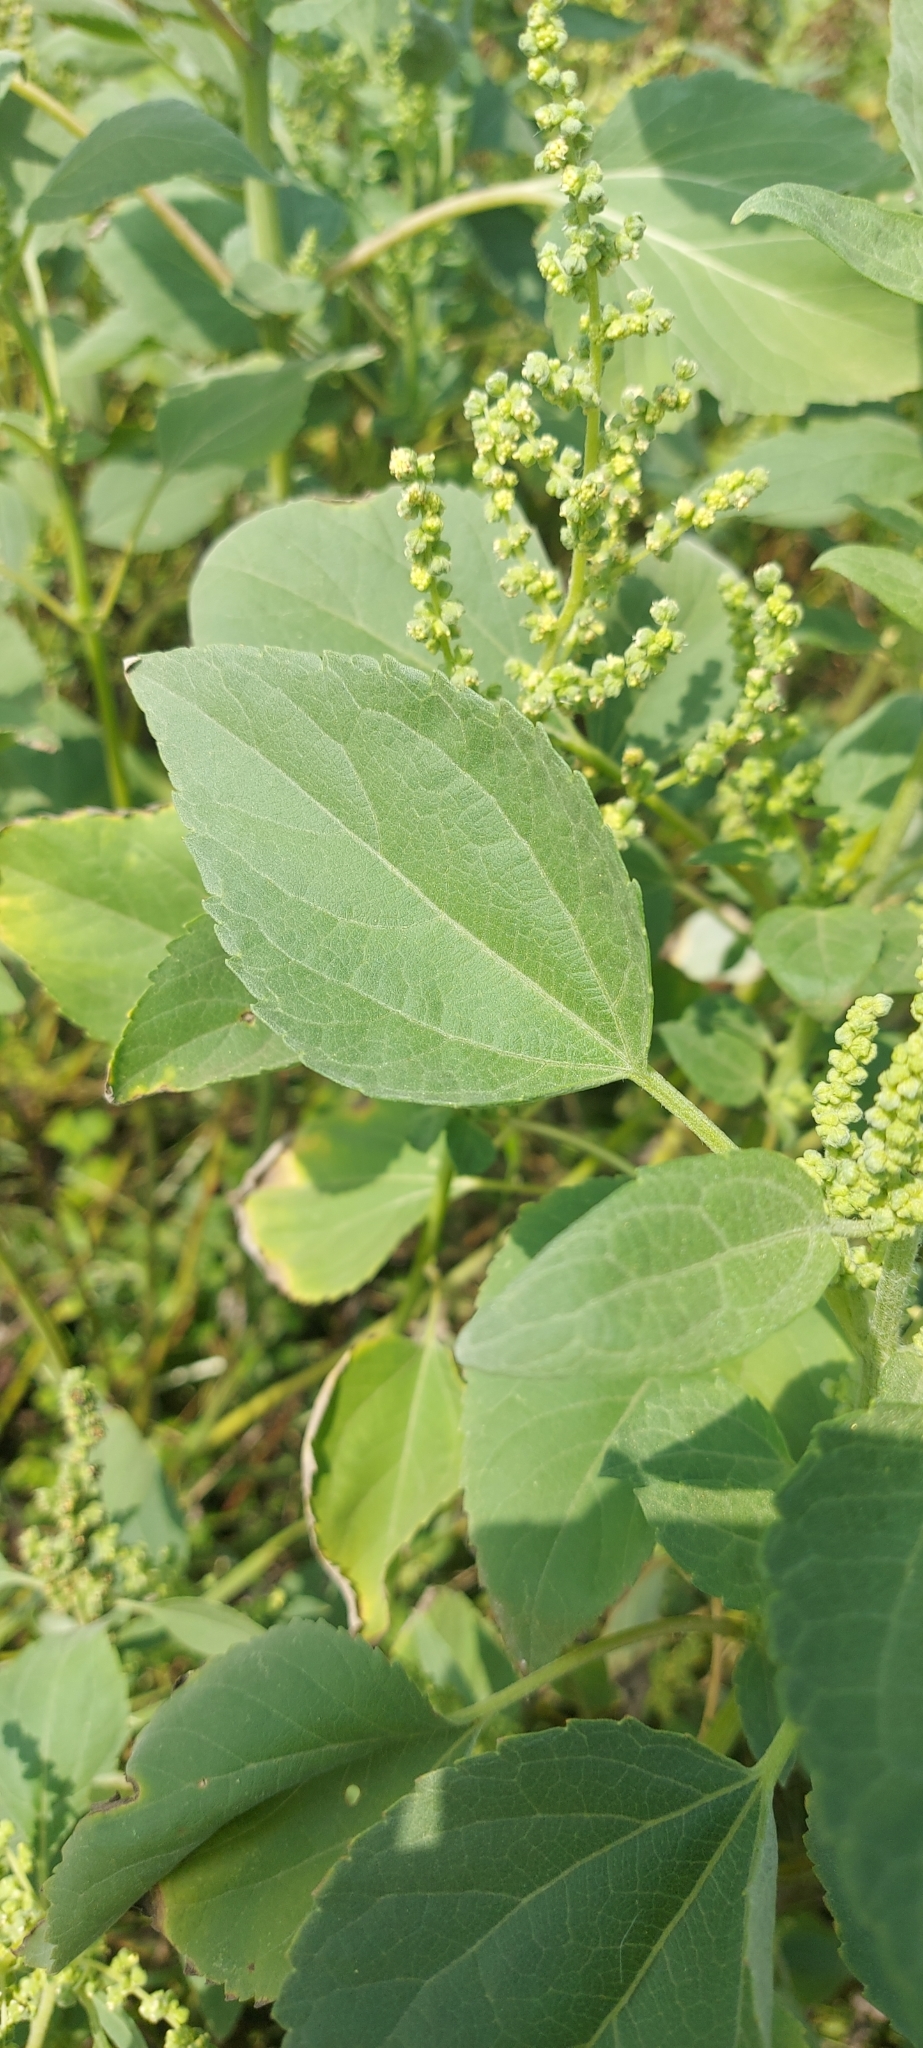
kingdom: Plantae
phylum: Tracheophyta
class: Magnoliopsida
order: Asterales
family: Asteraceae
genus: Cyclachaena
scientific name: Cyclachaena xanthiifolia
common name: Giant sumpweed
